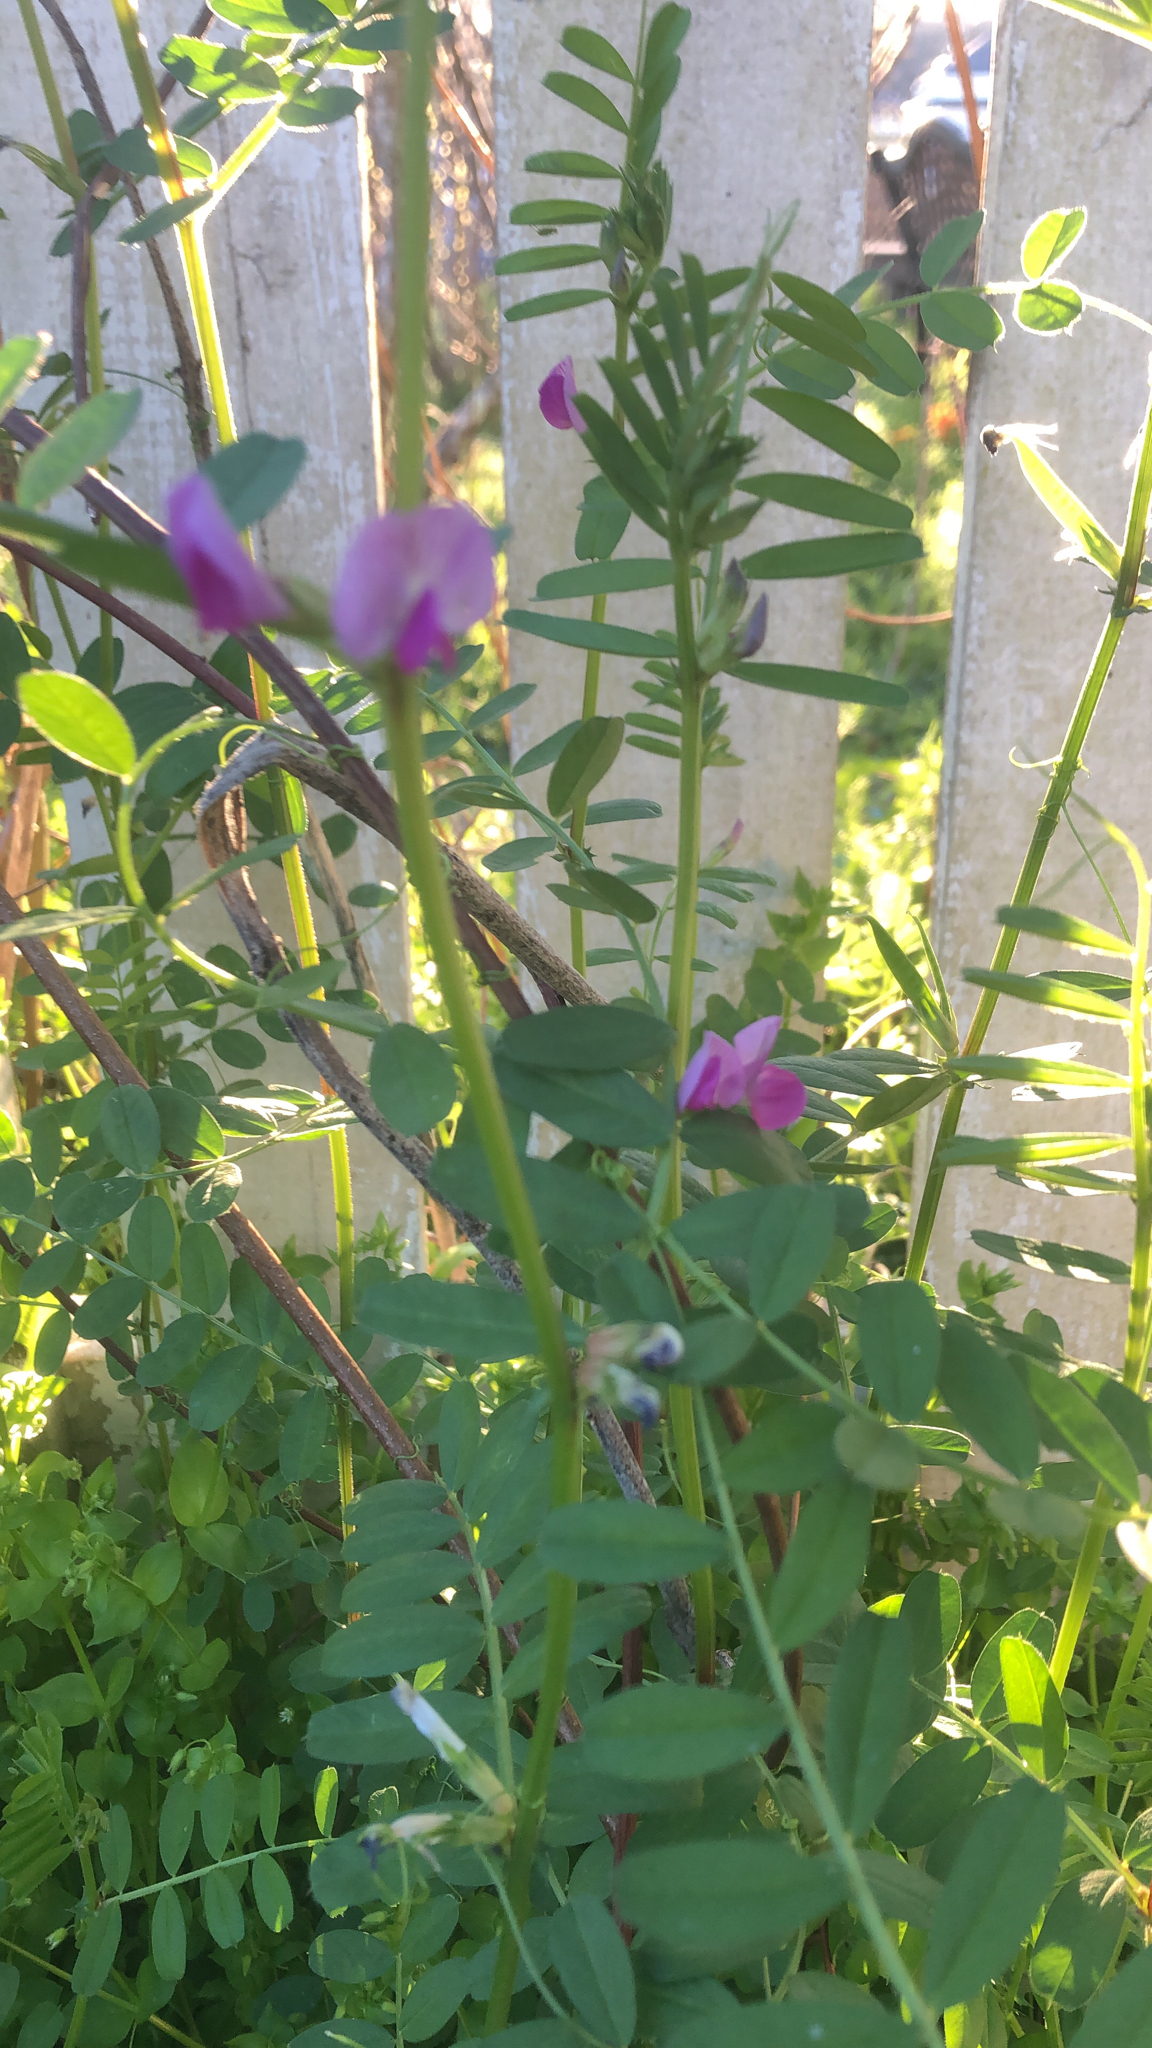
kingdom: Plantae
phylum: Tracheophyta
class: Magnoliopsida
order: Fabales
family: Fabaceae
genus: Vicia
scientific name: Vicia sativa
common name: Garden vetch
